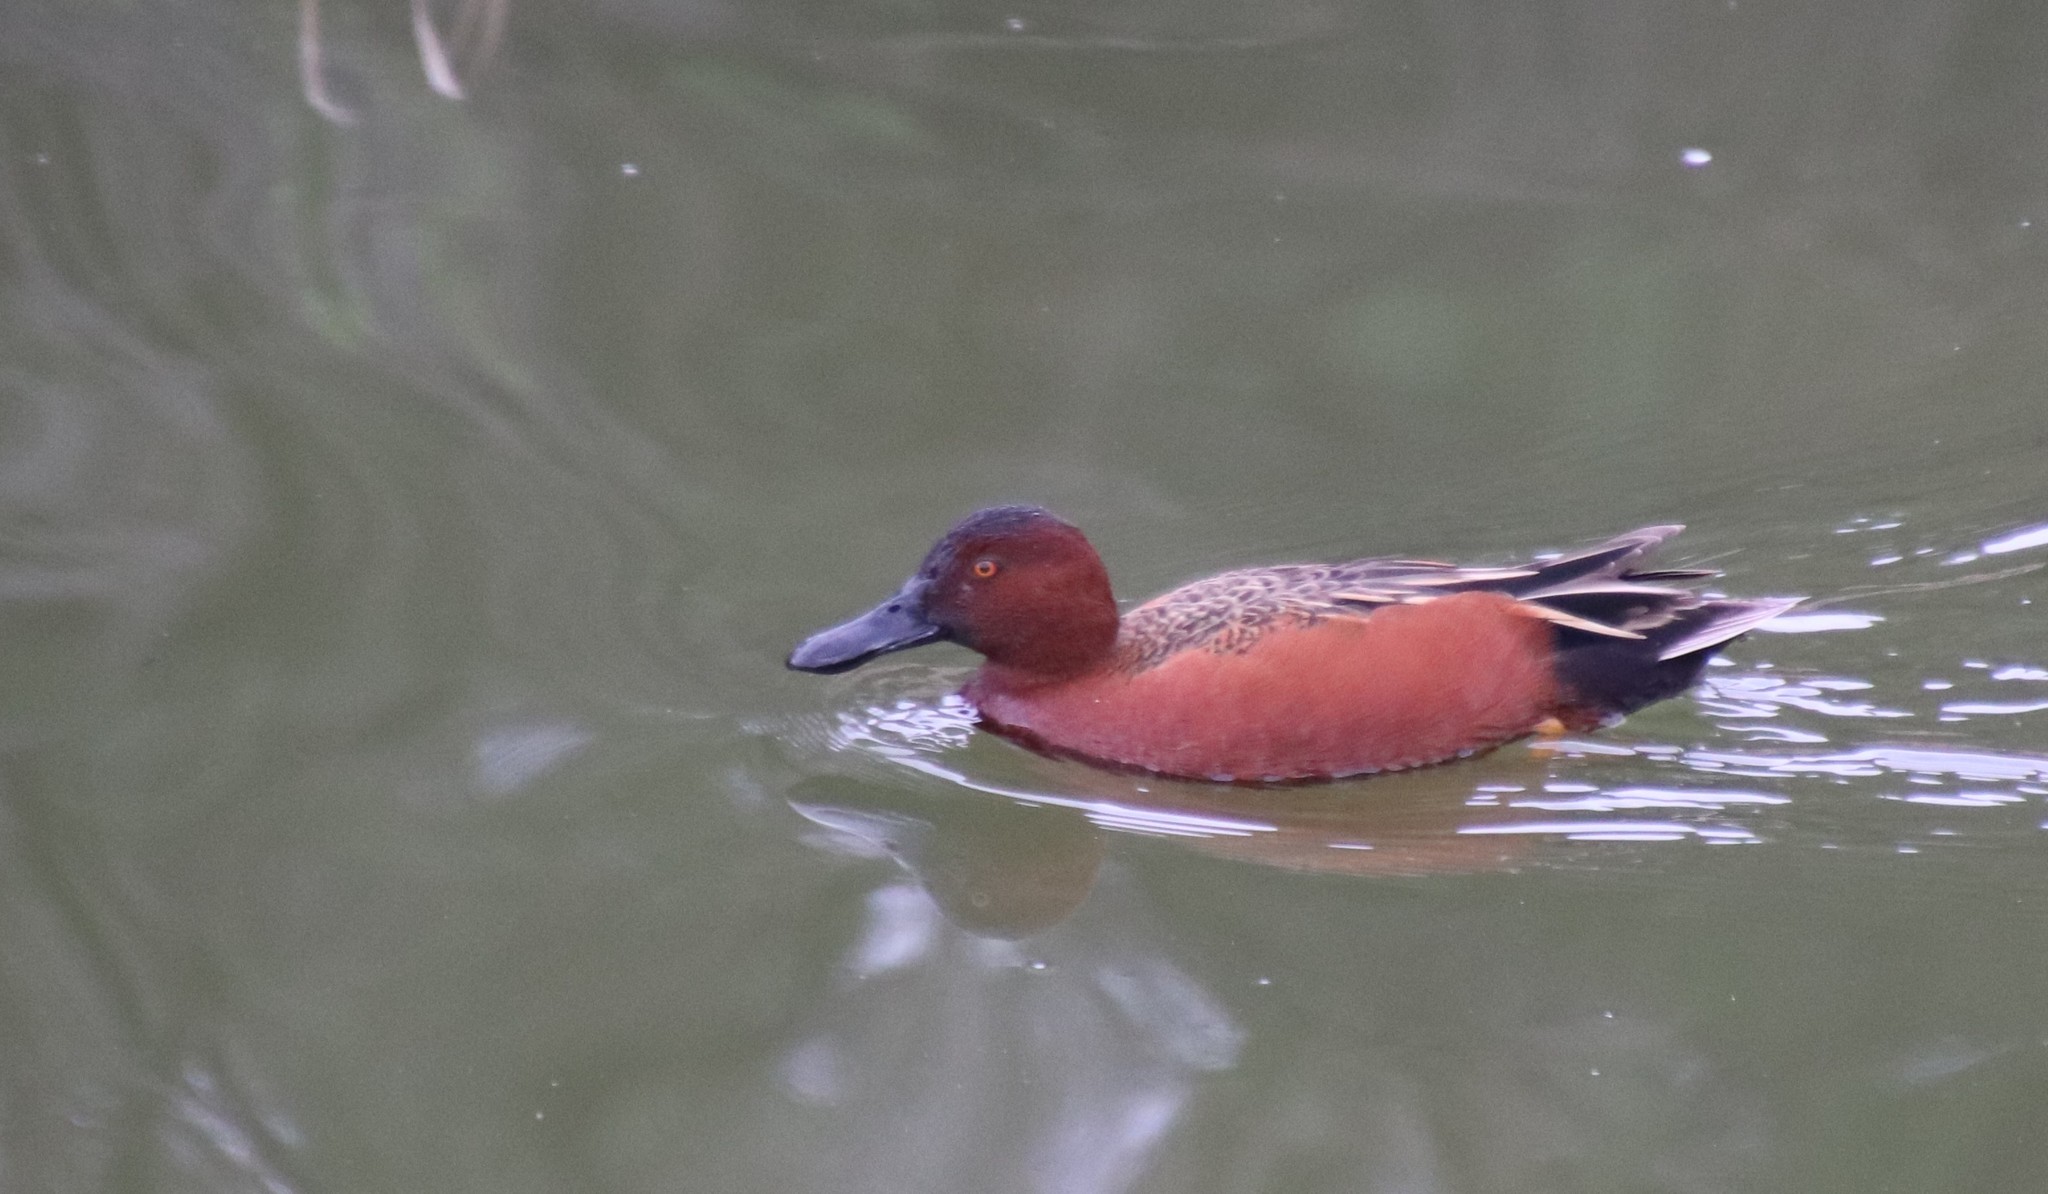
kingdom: Animalia
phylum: Chordata
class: Aves
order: Anseriformes
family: Anatidae
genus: Spatula
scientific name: Spatula cyanoptera
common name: Cinnamon teal
